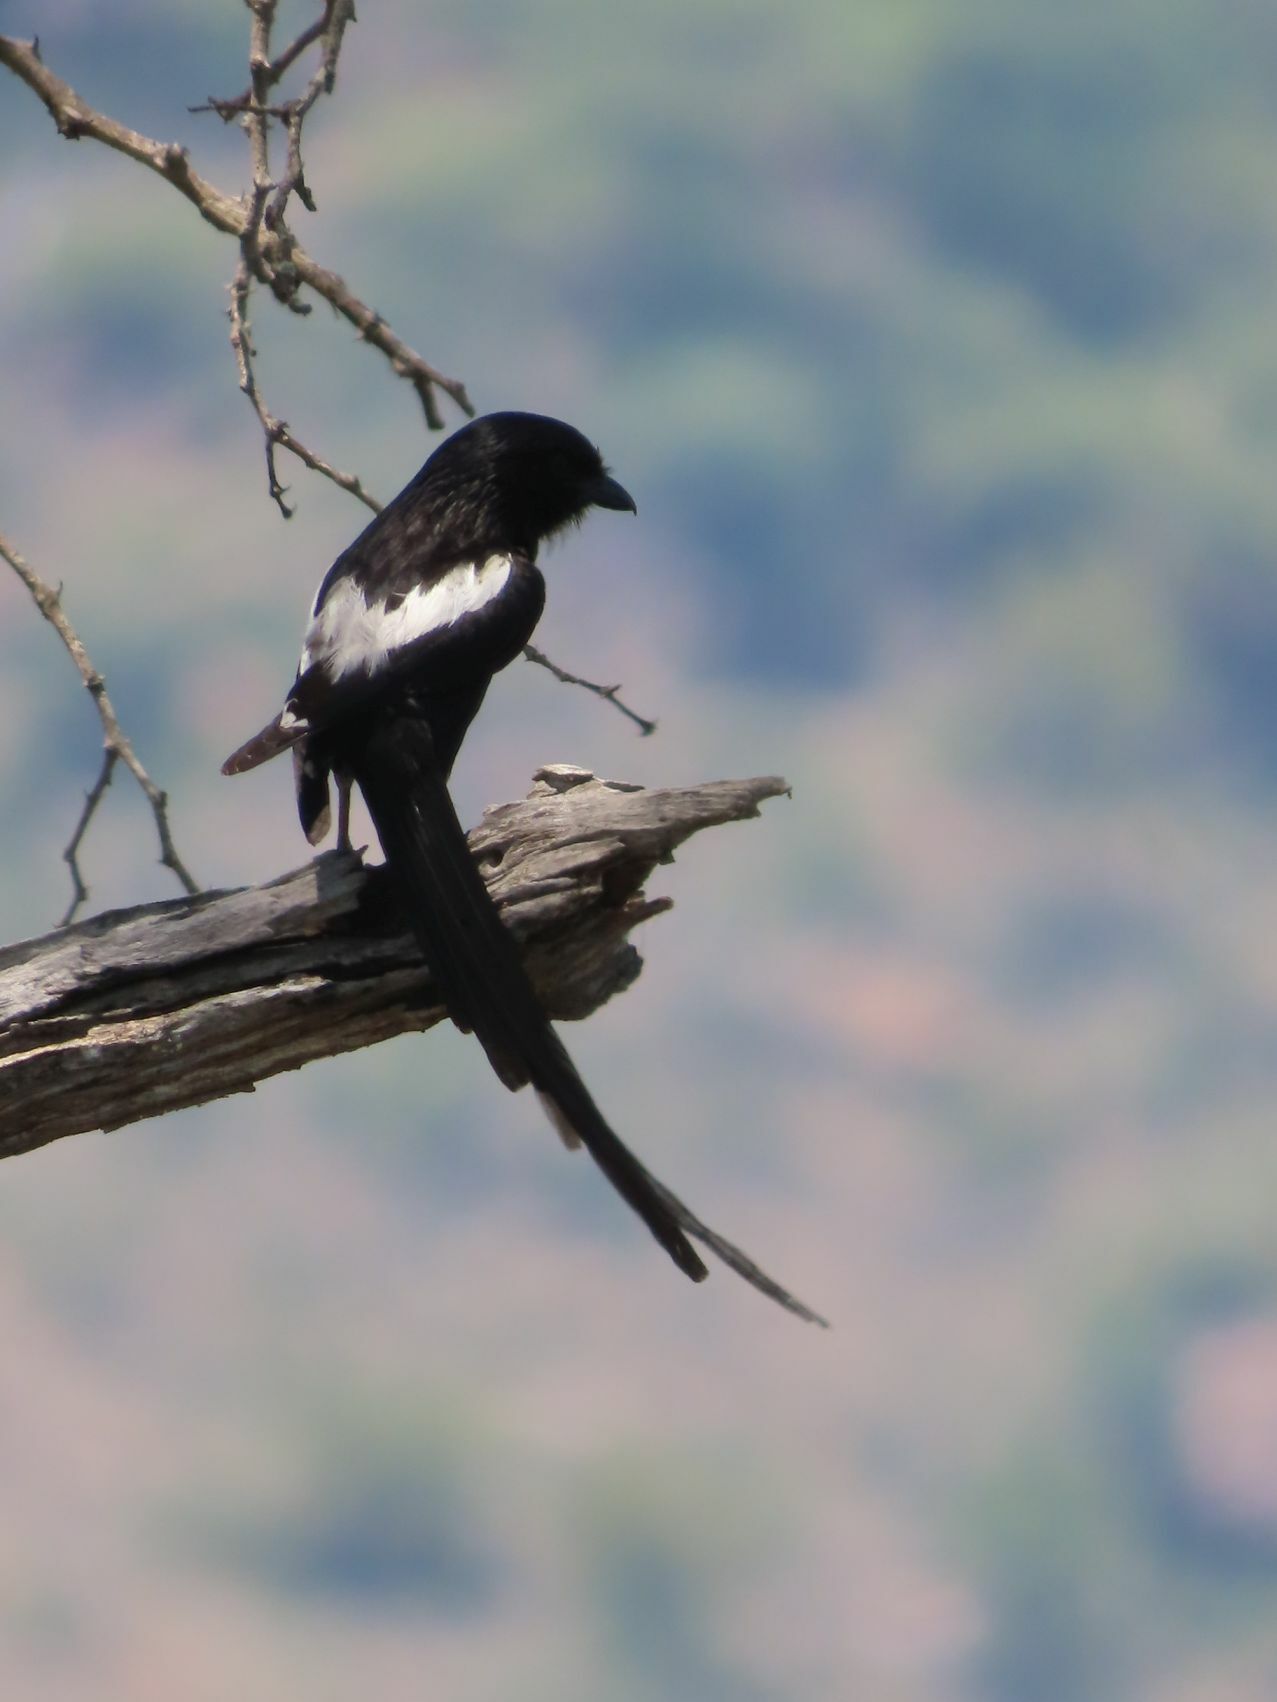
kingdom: Animalia
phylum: Chordata
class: Aves
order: Passeriformes
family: Laniidae
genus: Urolestes
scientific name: Urolestes melanoleucus
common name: Magpie shrike
